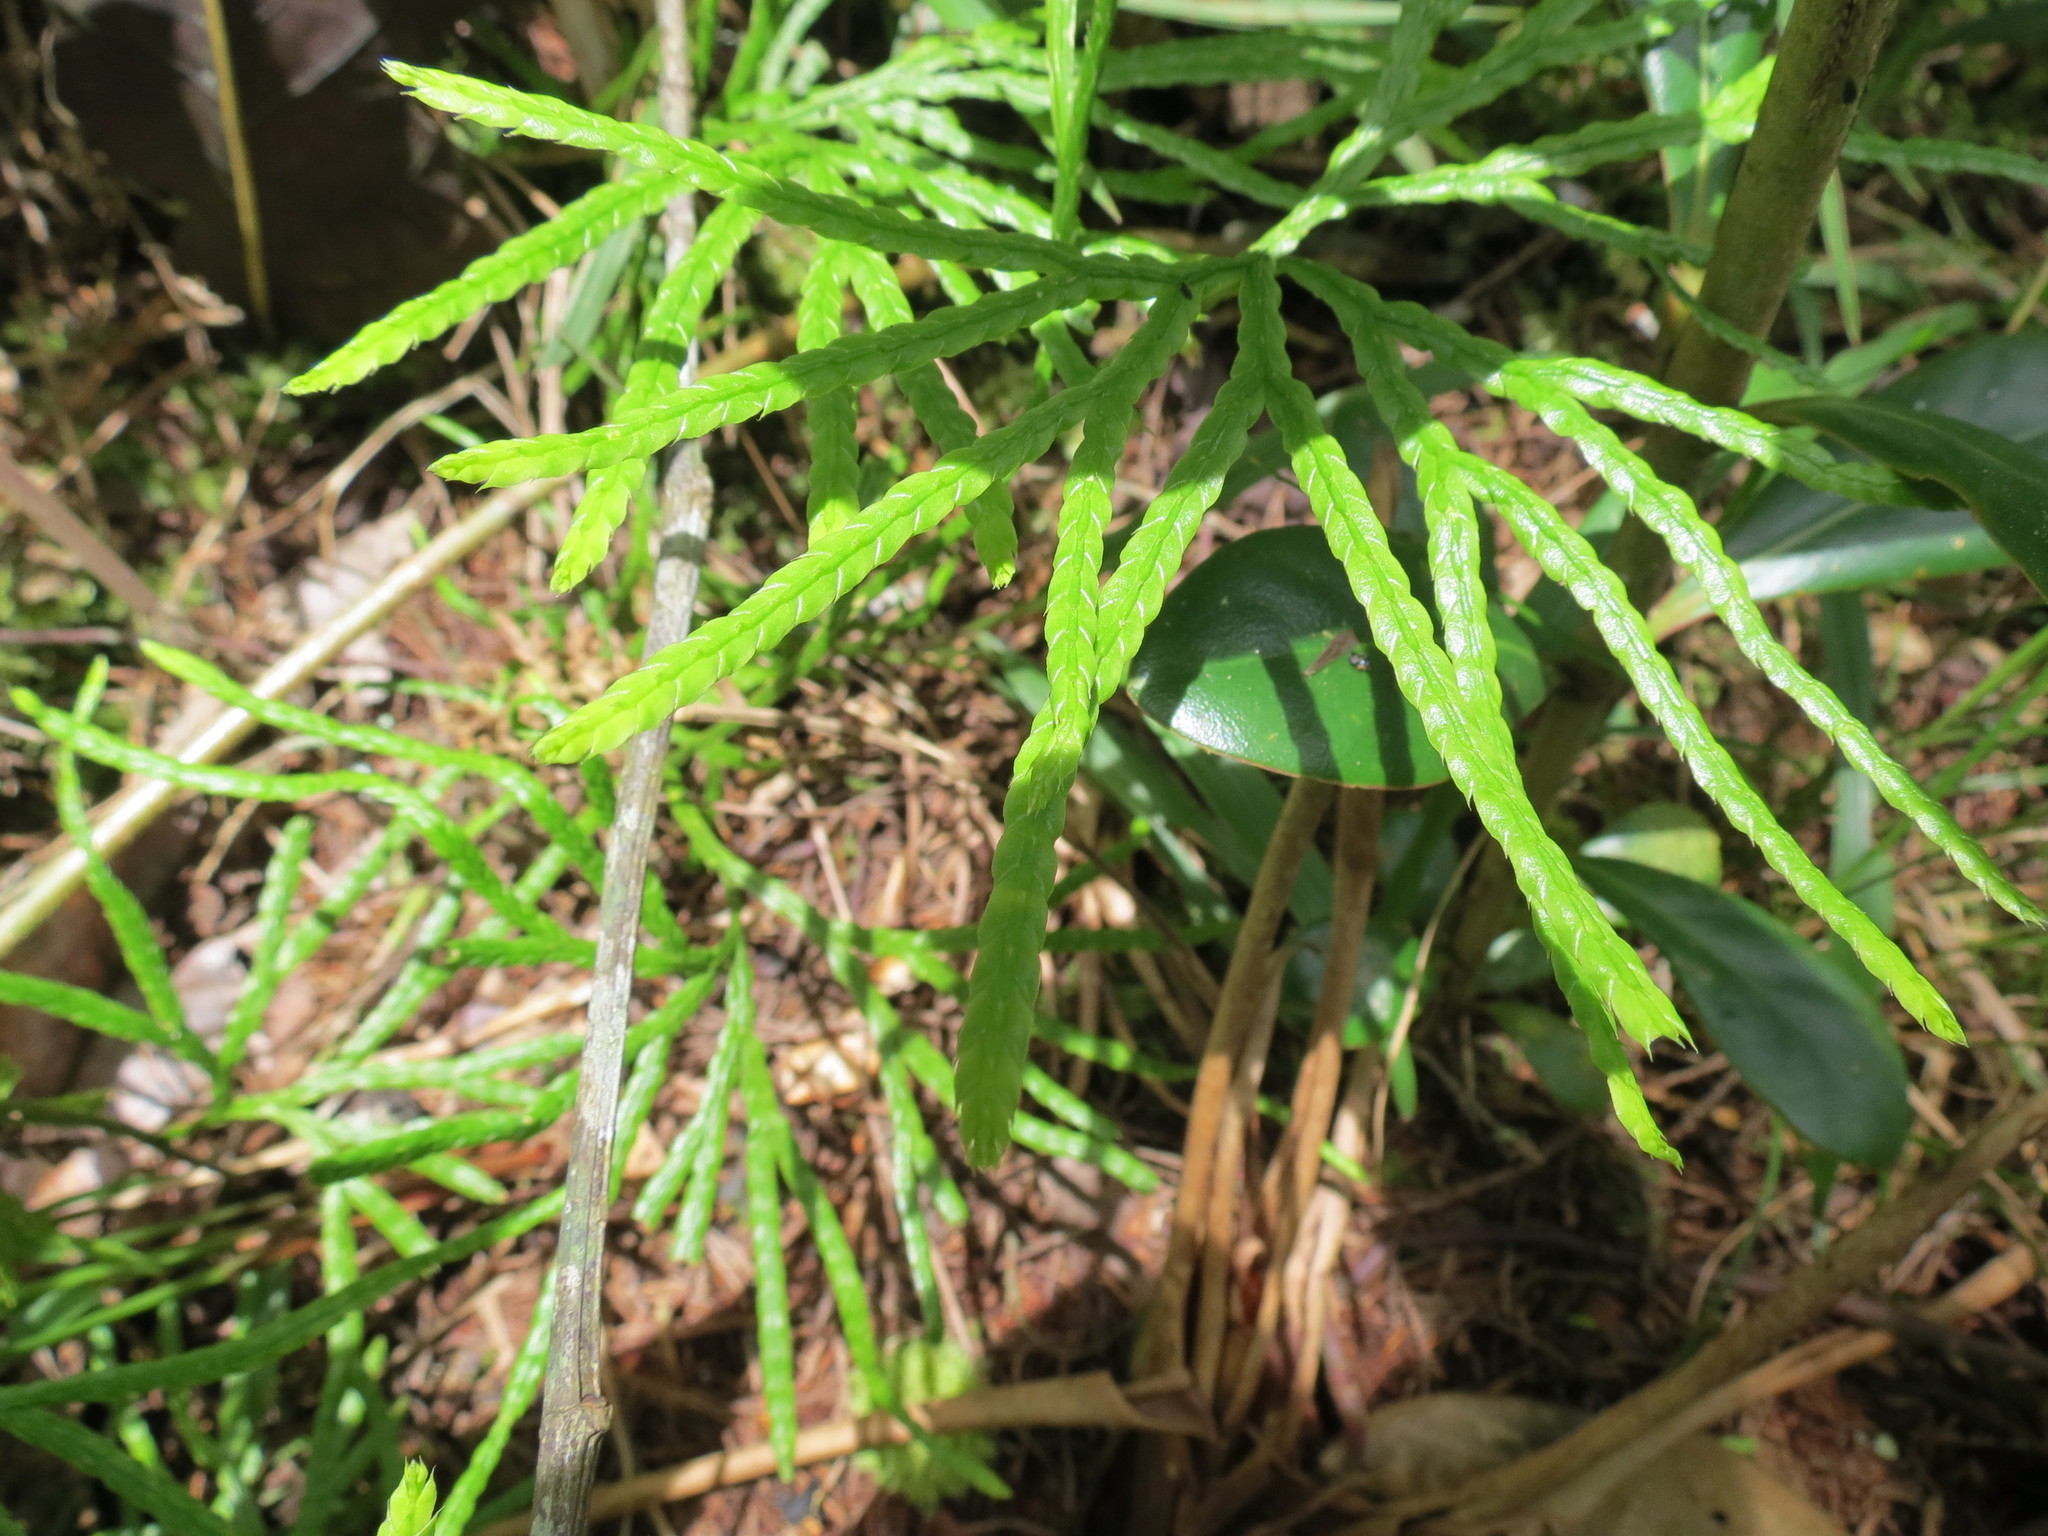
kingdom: Plantae
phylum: Tracheophyta
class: Lycopodiopsida
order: Lycopodiales
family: Lycopodiaceae
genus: Diphasiastrum
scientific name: Diphasiastrum thyoides
